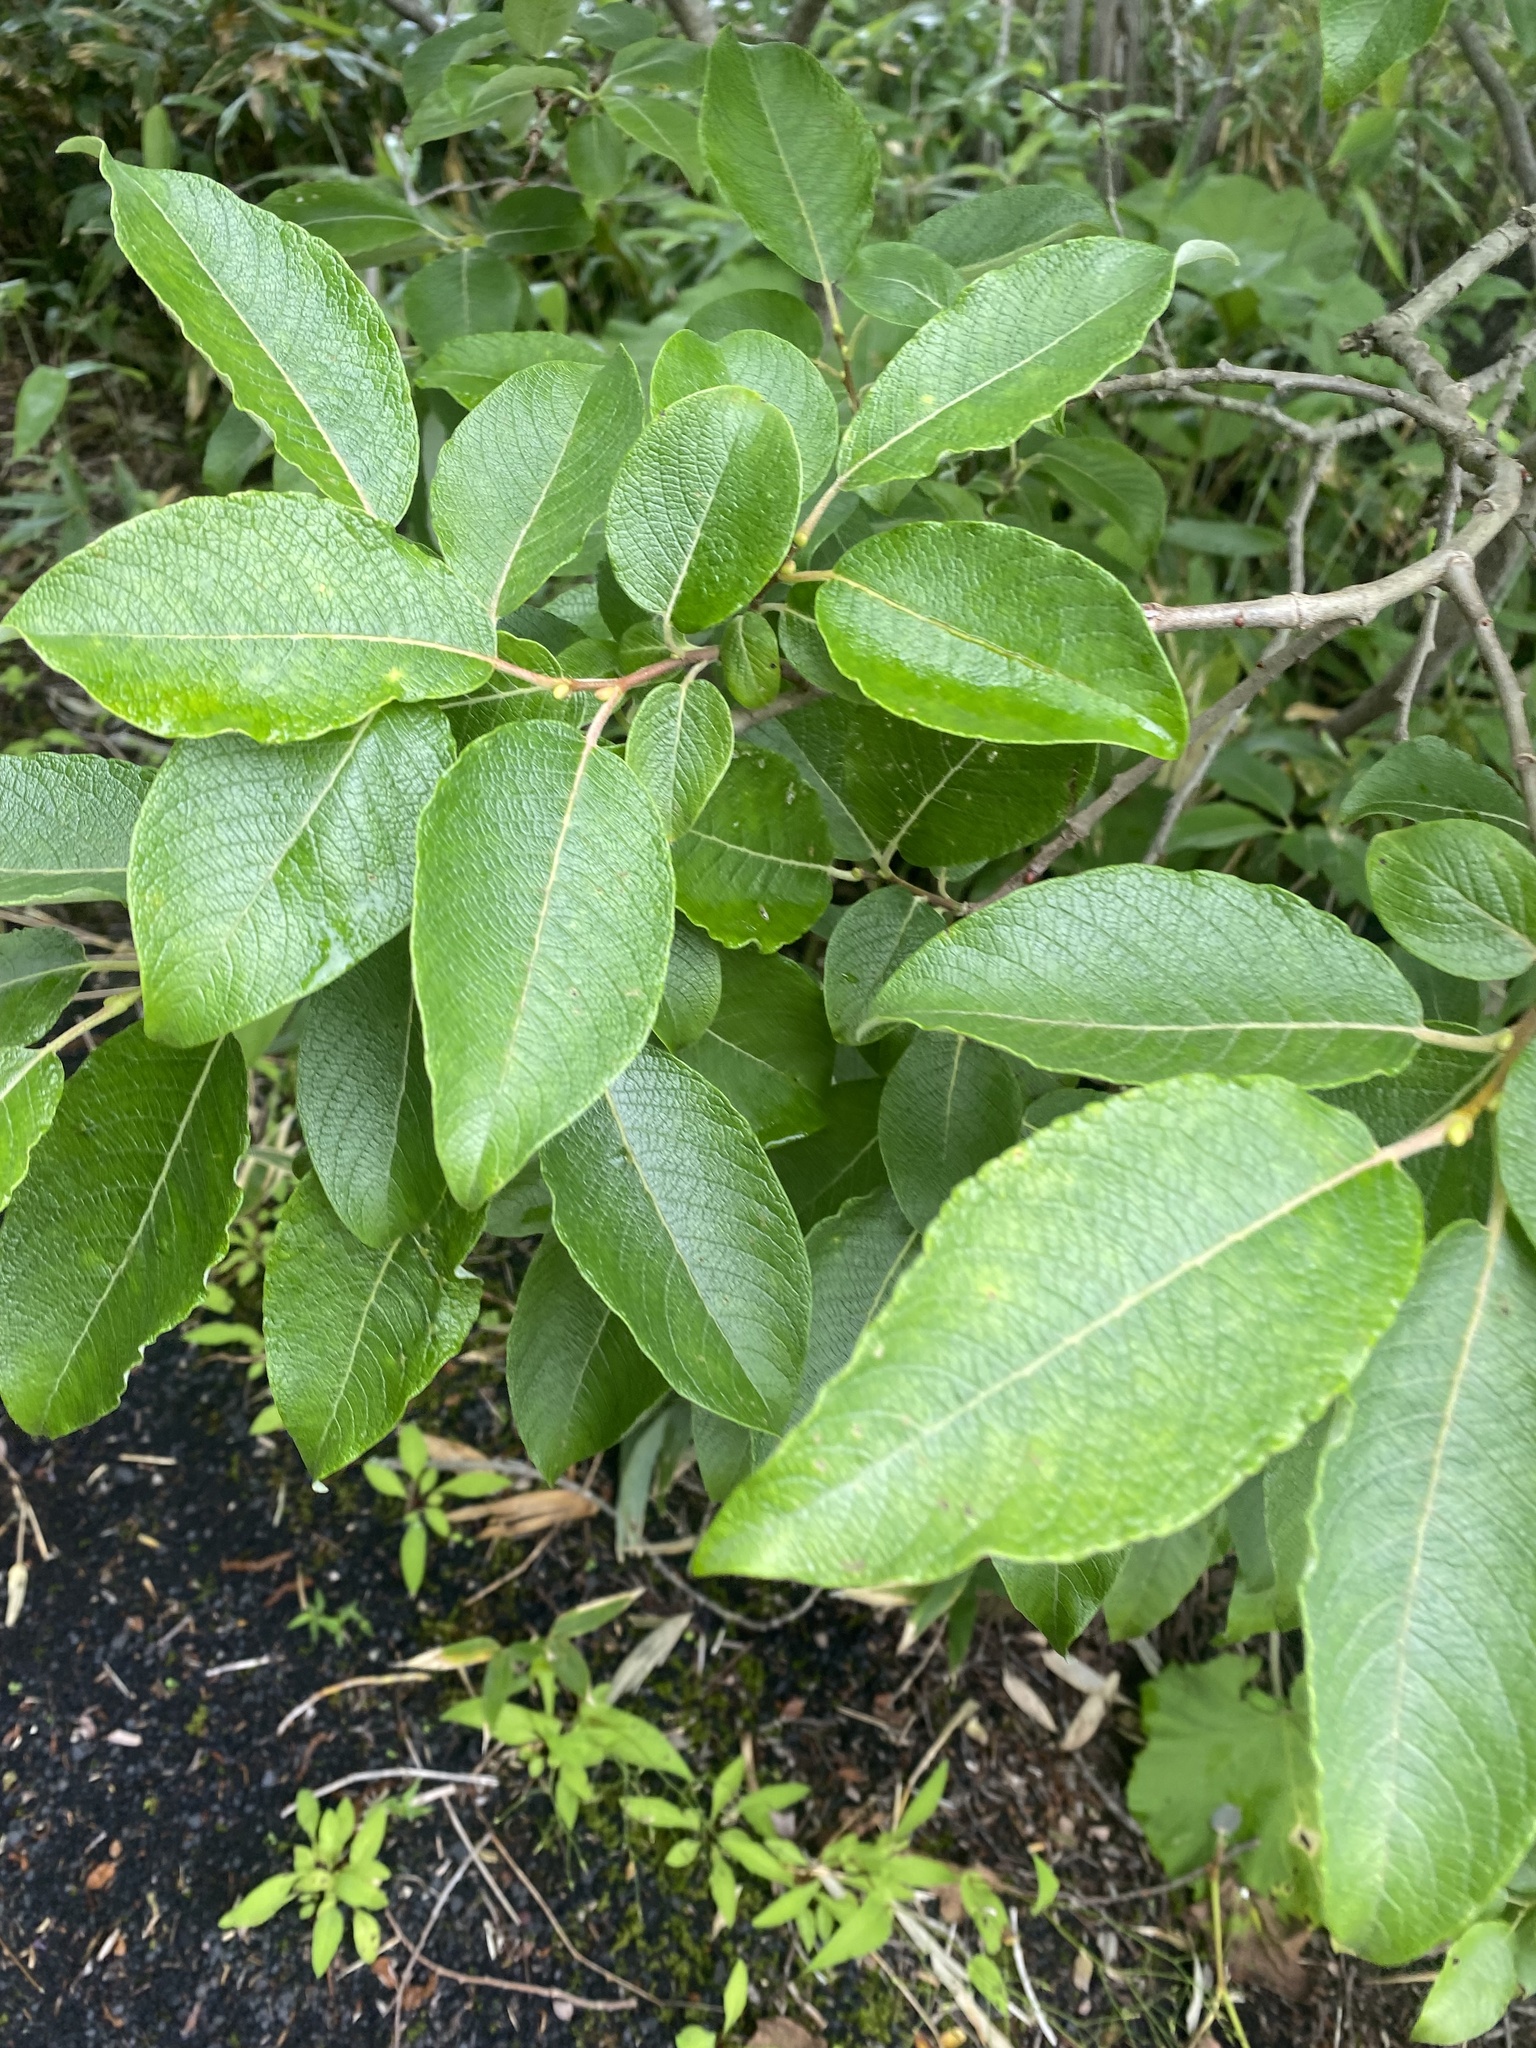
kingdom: Plantae
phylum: Tracheophyta
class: Magnoliopsida
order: Malpighiales
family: Salicaceae
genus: Salix
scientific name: Salix caprea
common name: Goat willow
